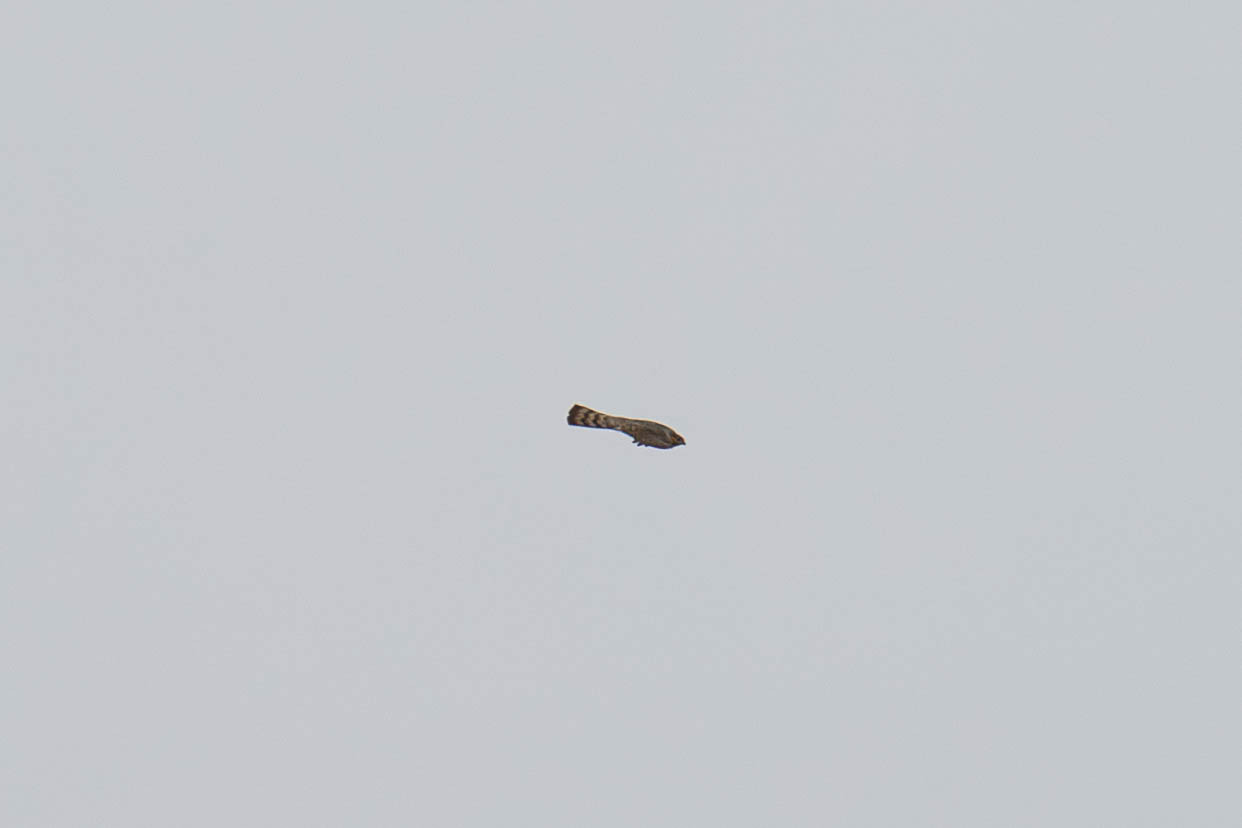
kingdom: Animalia
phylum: Chordata
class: Aves
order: Accipitriformes
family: Accipitridae
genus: Accipiter
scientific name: Accipiter striatus
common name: Sharp-shinned hawk
